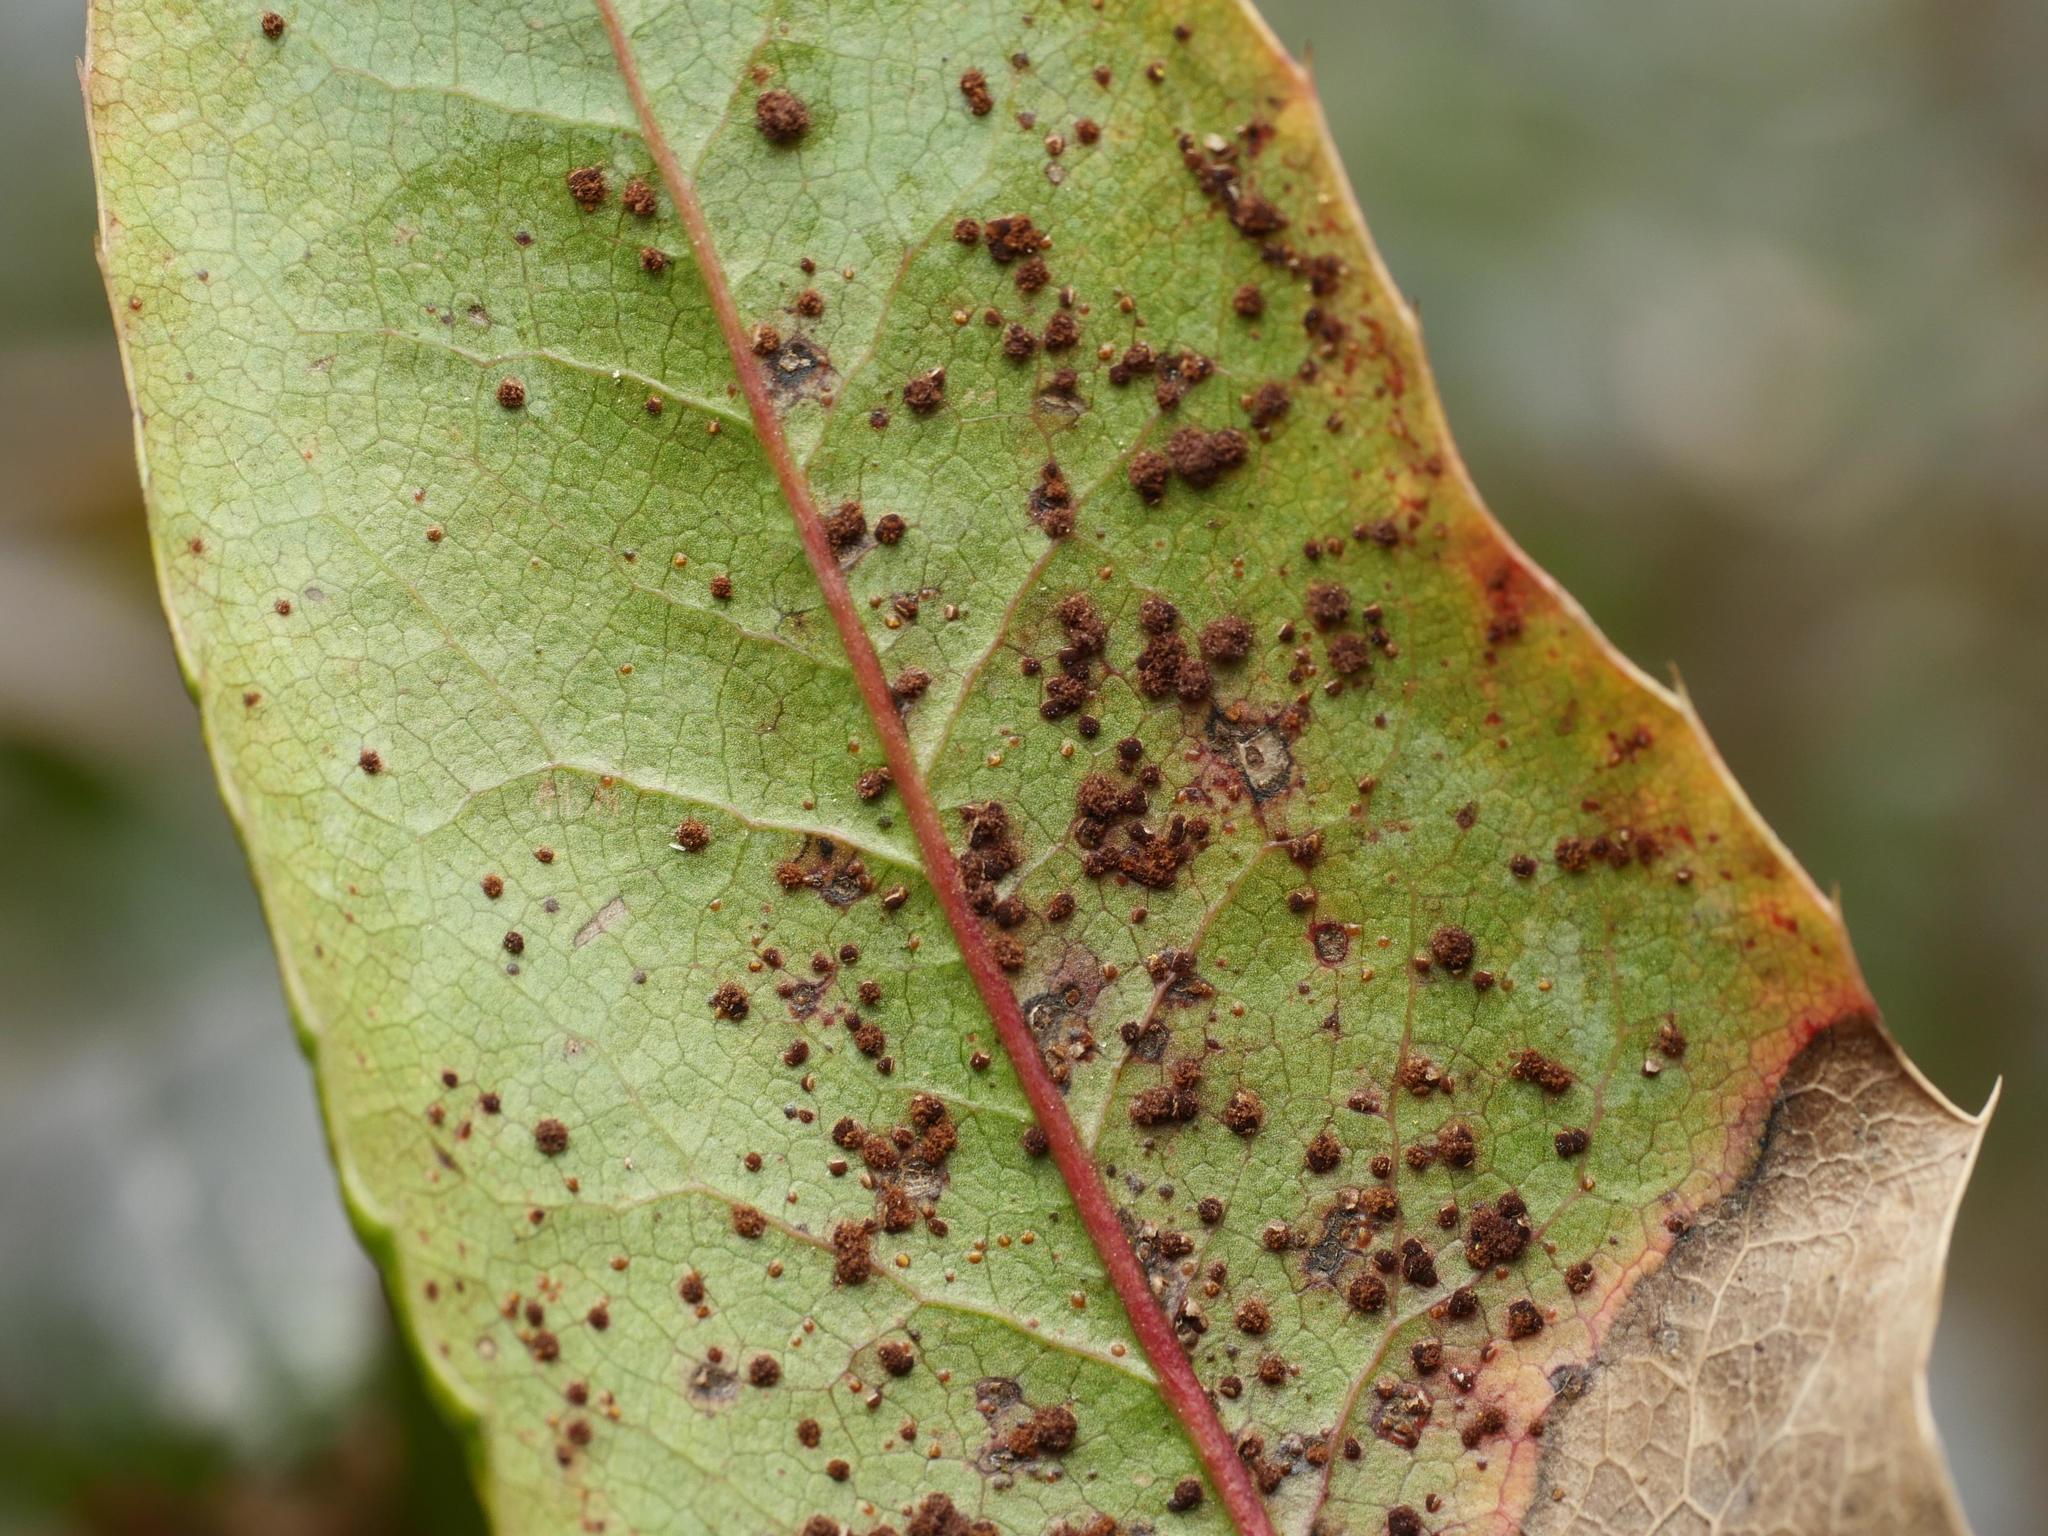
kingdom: Fungi
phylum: Basidiomycota
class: Pucciniomycetes
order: Pucciniales
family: Pucciniaceae
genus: Cumminsiella
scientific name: Cumminsiella mirabilissima
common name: Mahonia rust
